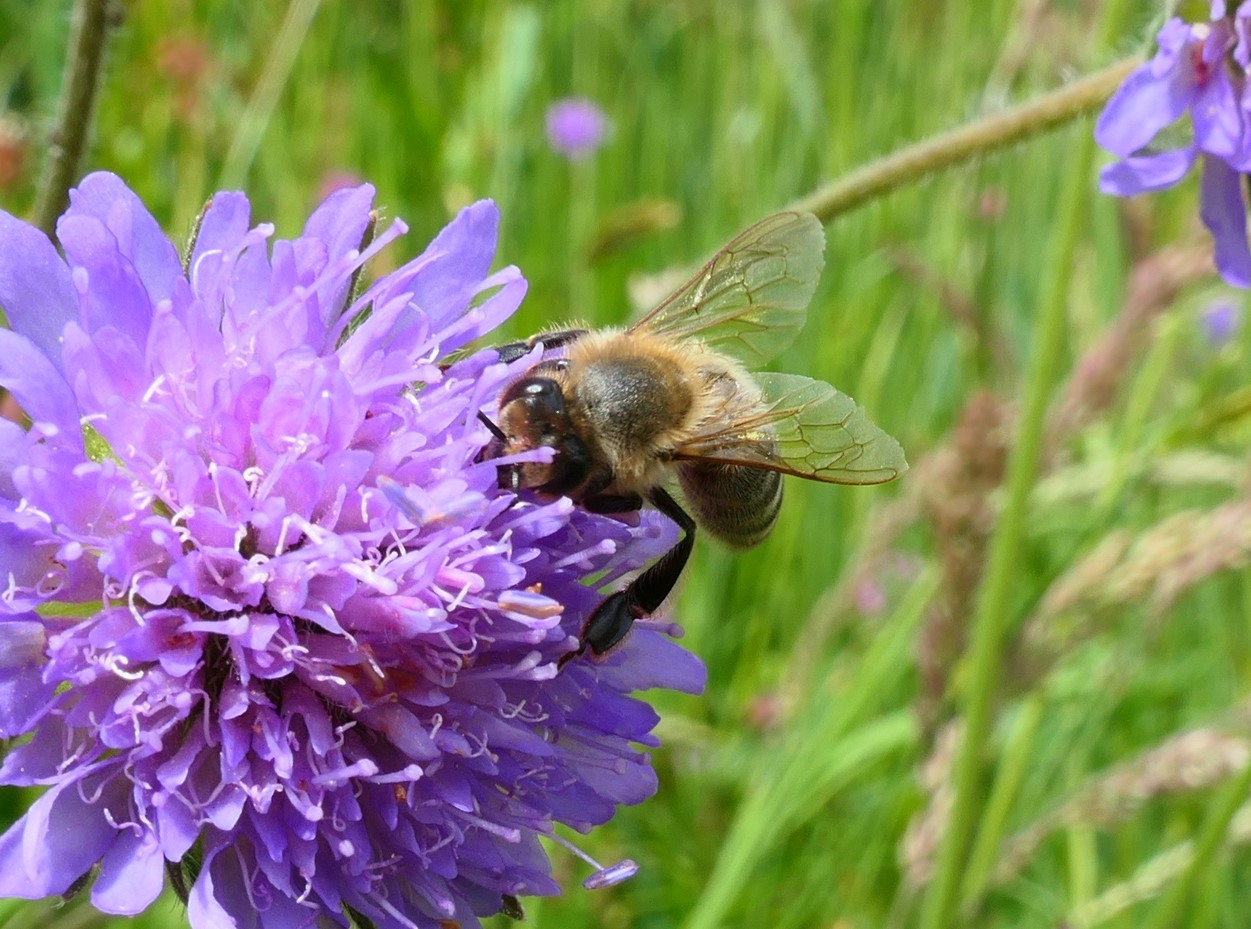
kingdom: Animalia
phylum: Arthropoda
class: Insecta
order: Hymenoptera
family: Apidae
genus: Apis
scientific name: Apis mellifera
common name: Honey bee
